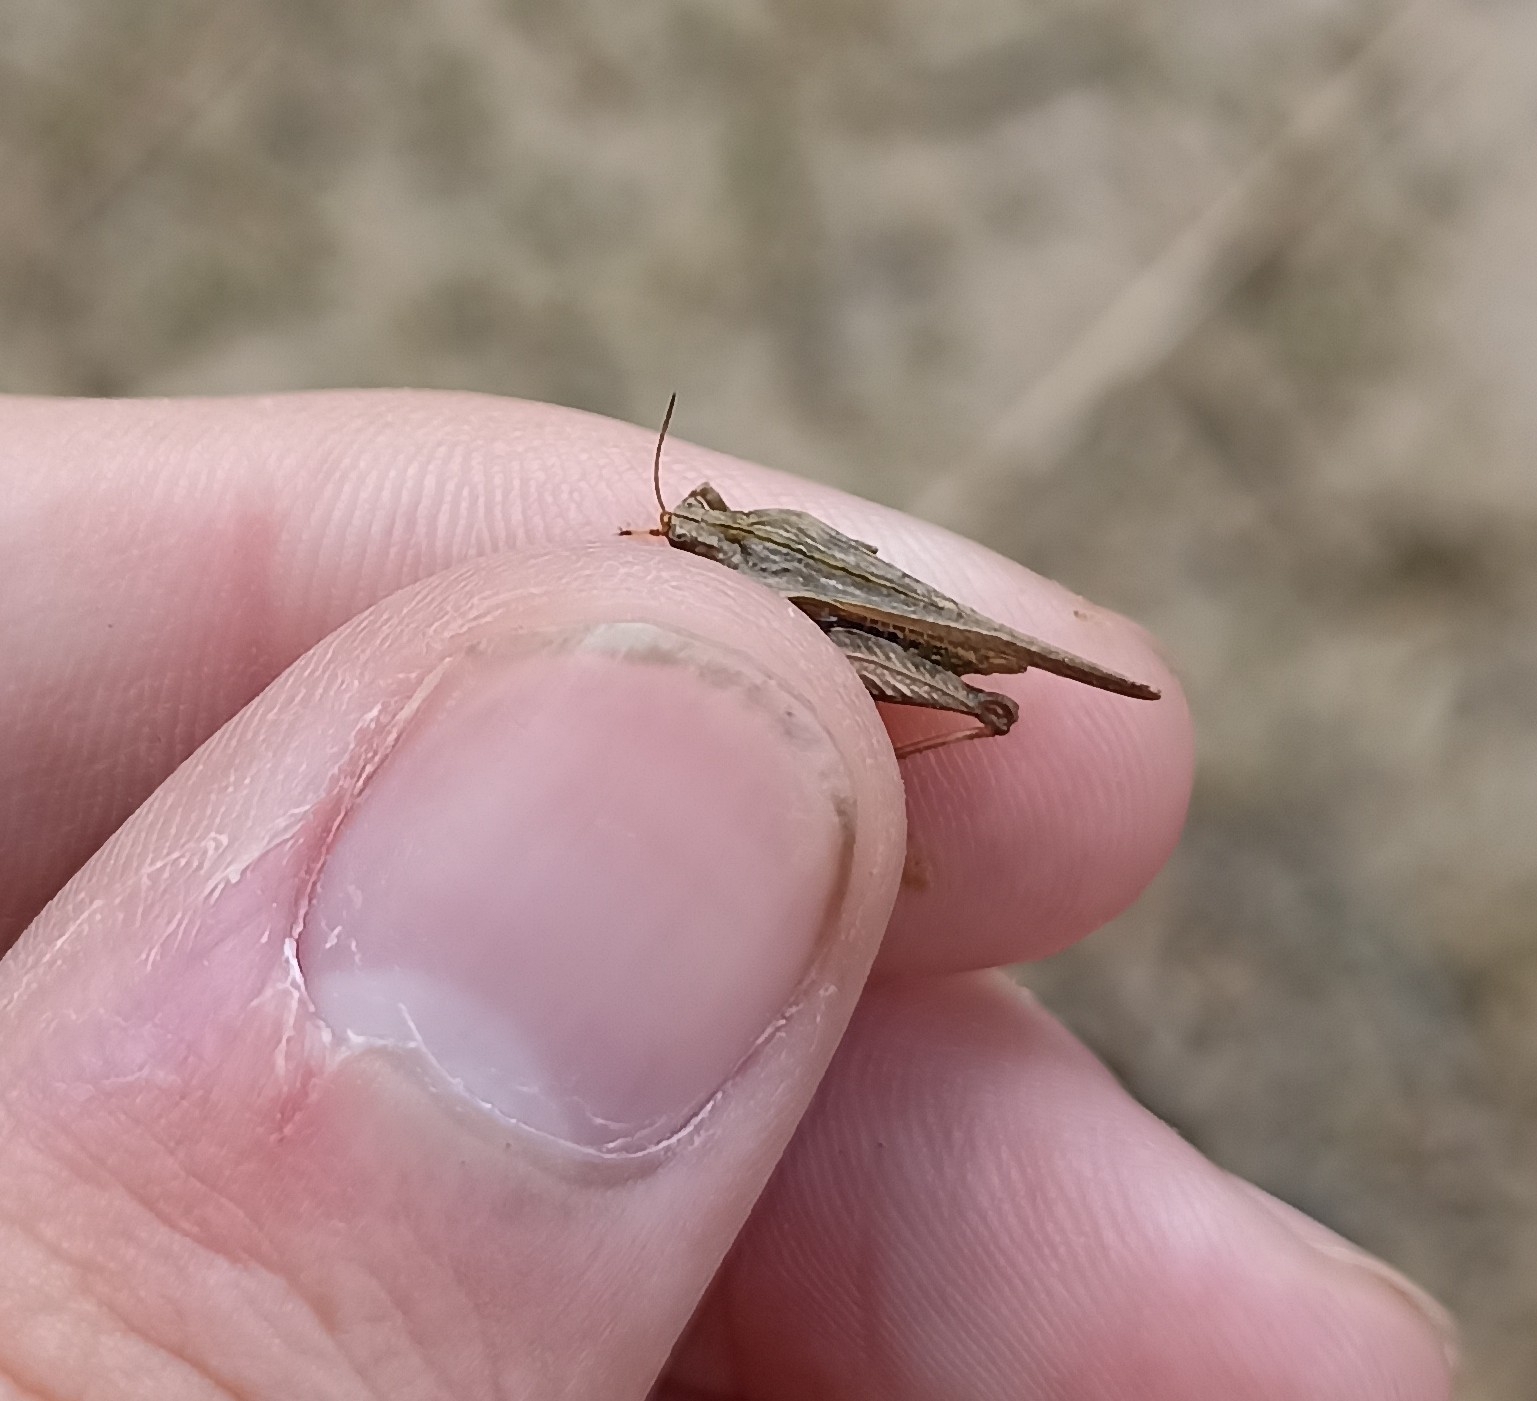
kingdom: Animalia
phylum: Arthropoda
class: Insecta
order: Orthoptera
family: Tetrigidae
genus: Tetrix
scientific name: Tetrix subulata
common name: Slender ground-hopper
